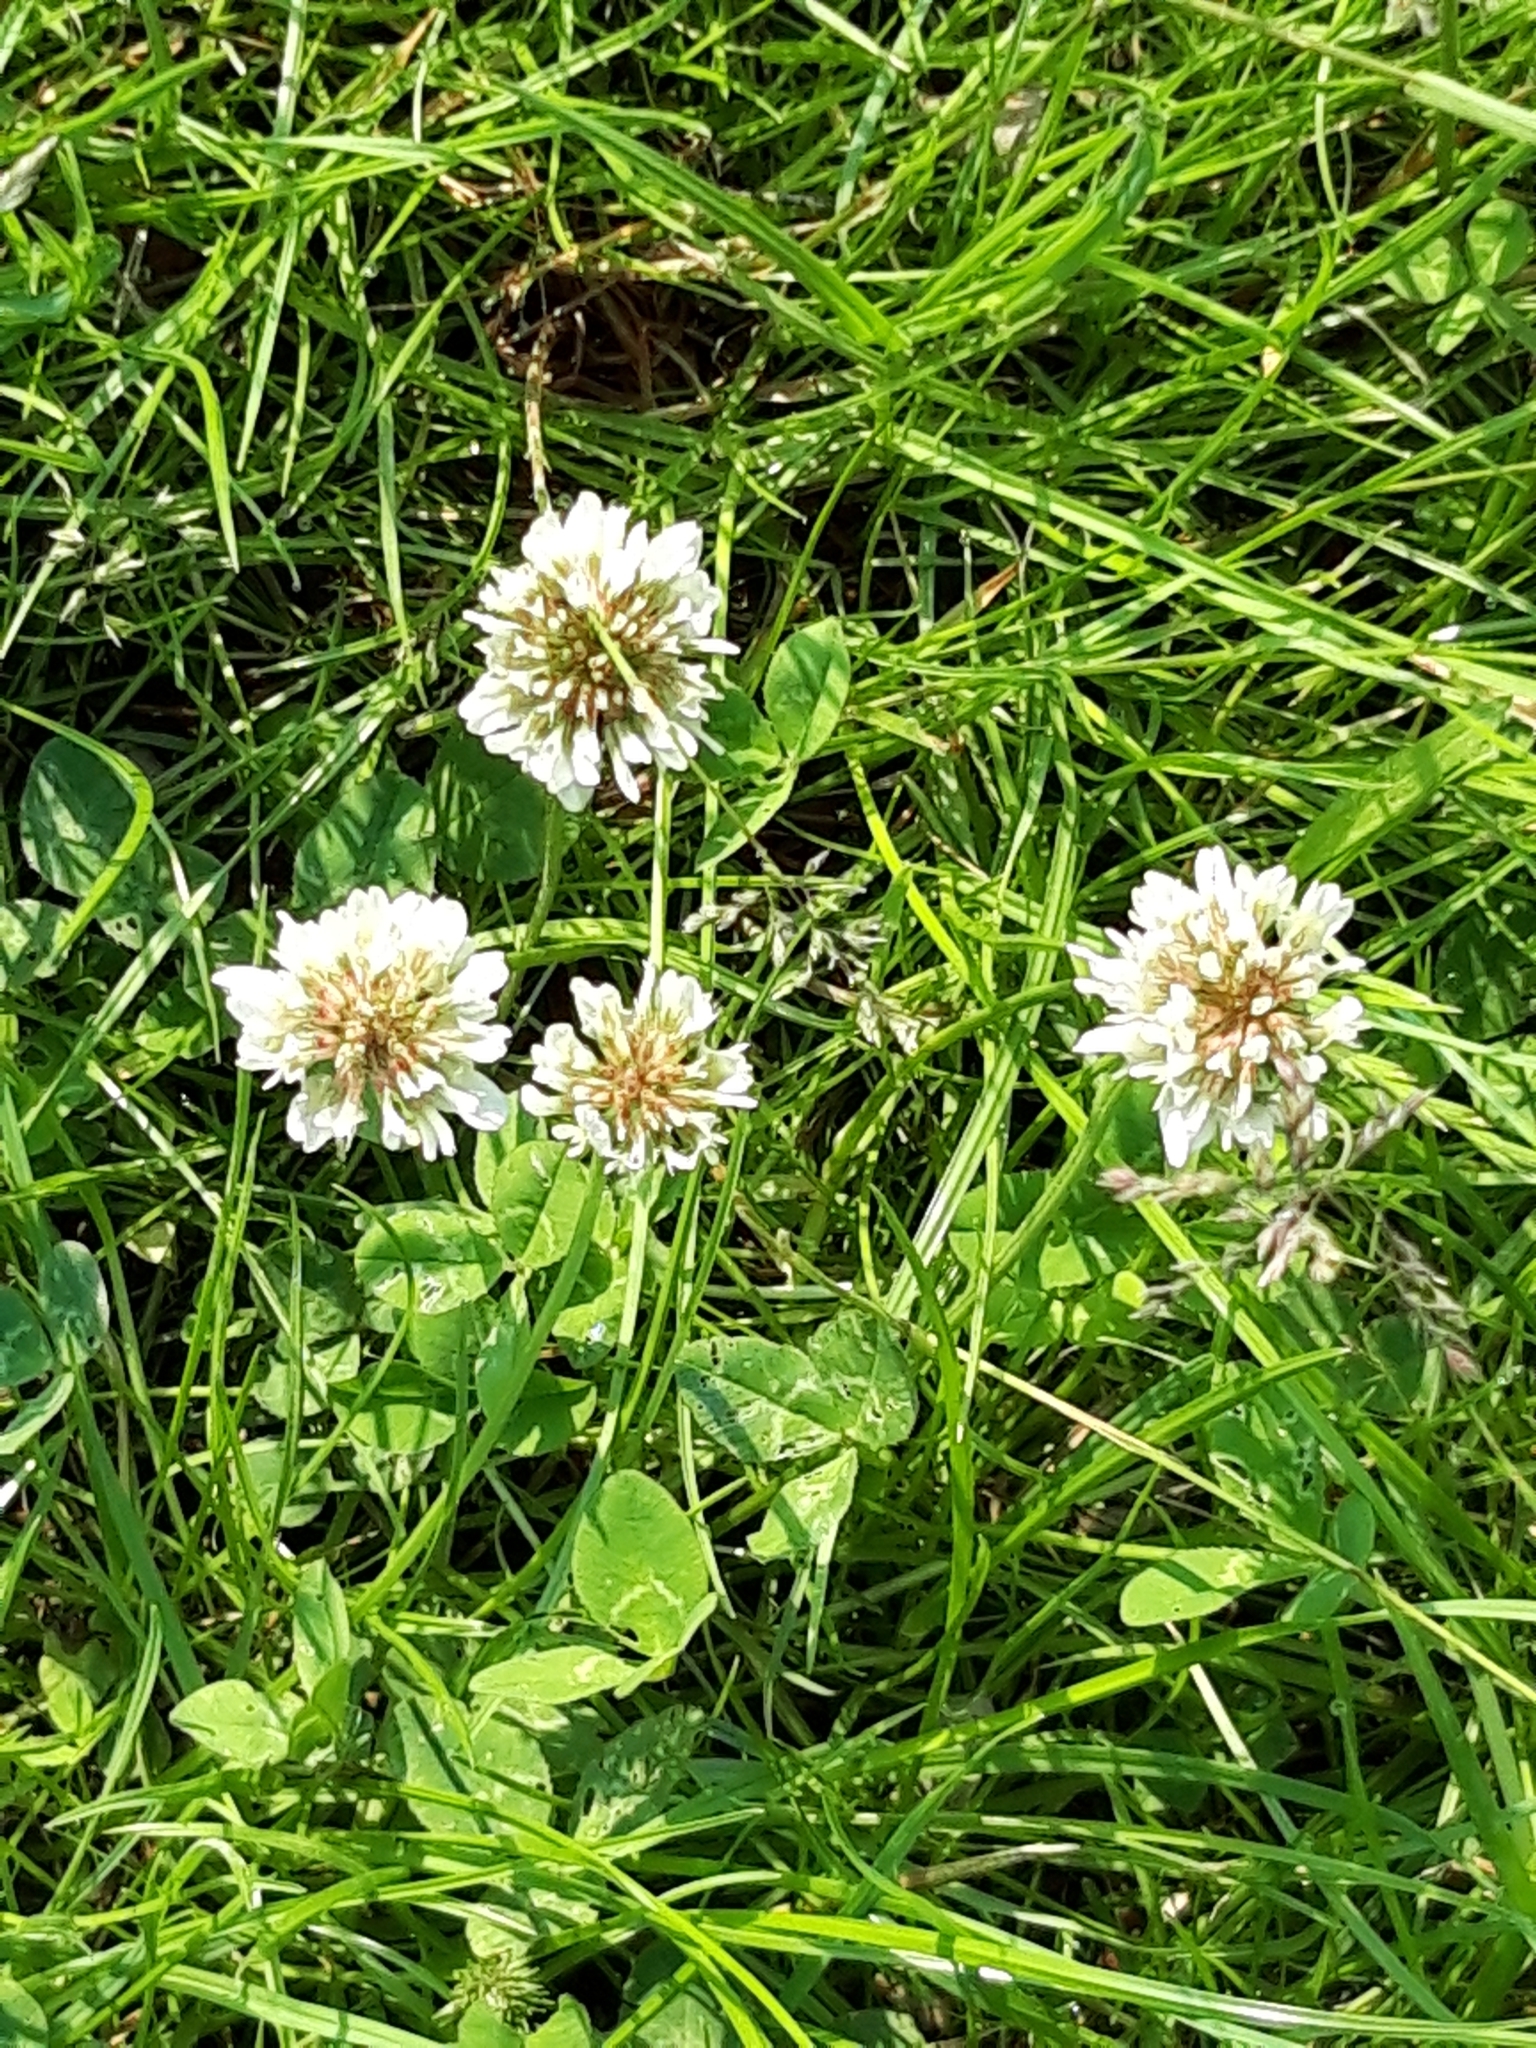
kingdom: Plantae
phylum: Tracheophyta
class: Magnoliopsida
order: Fabales
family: Fabaceae
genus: Trifolium
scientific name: Trifolium repens
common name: White clover
